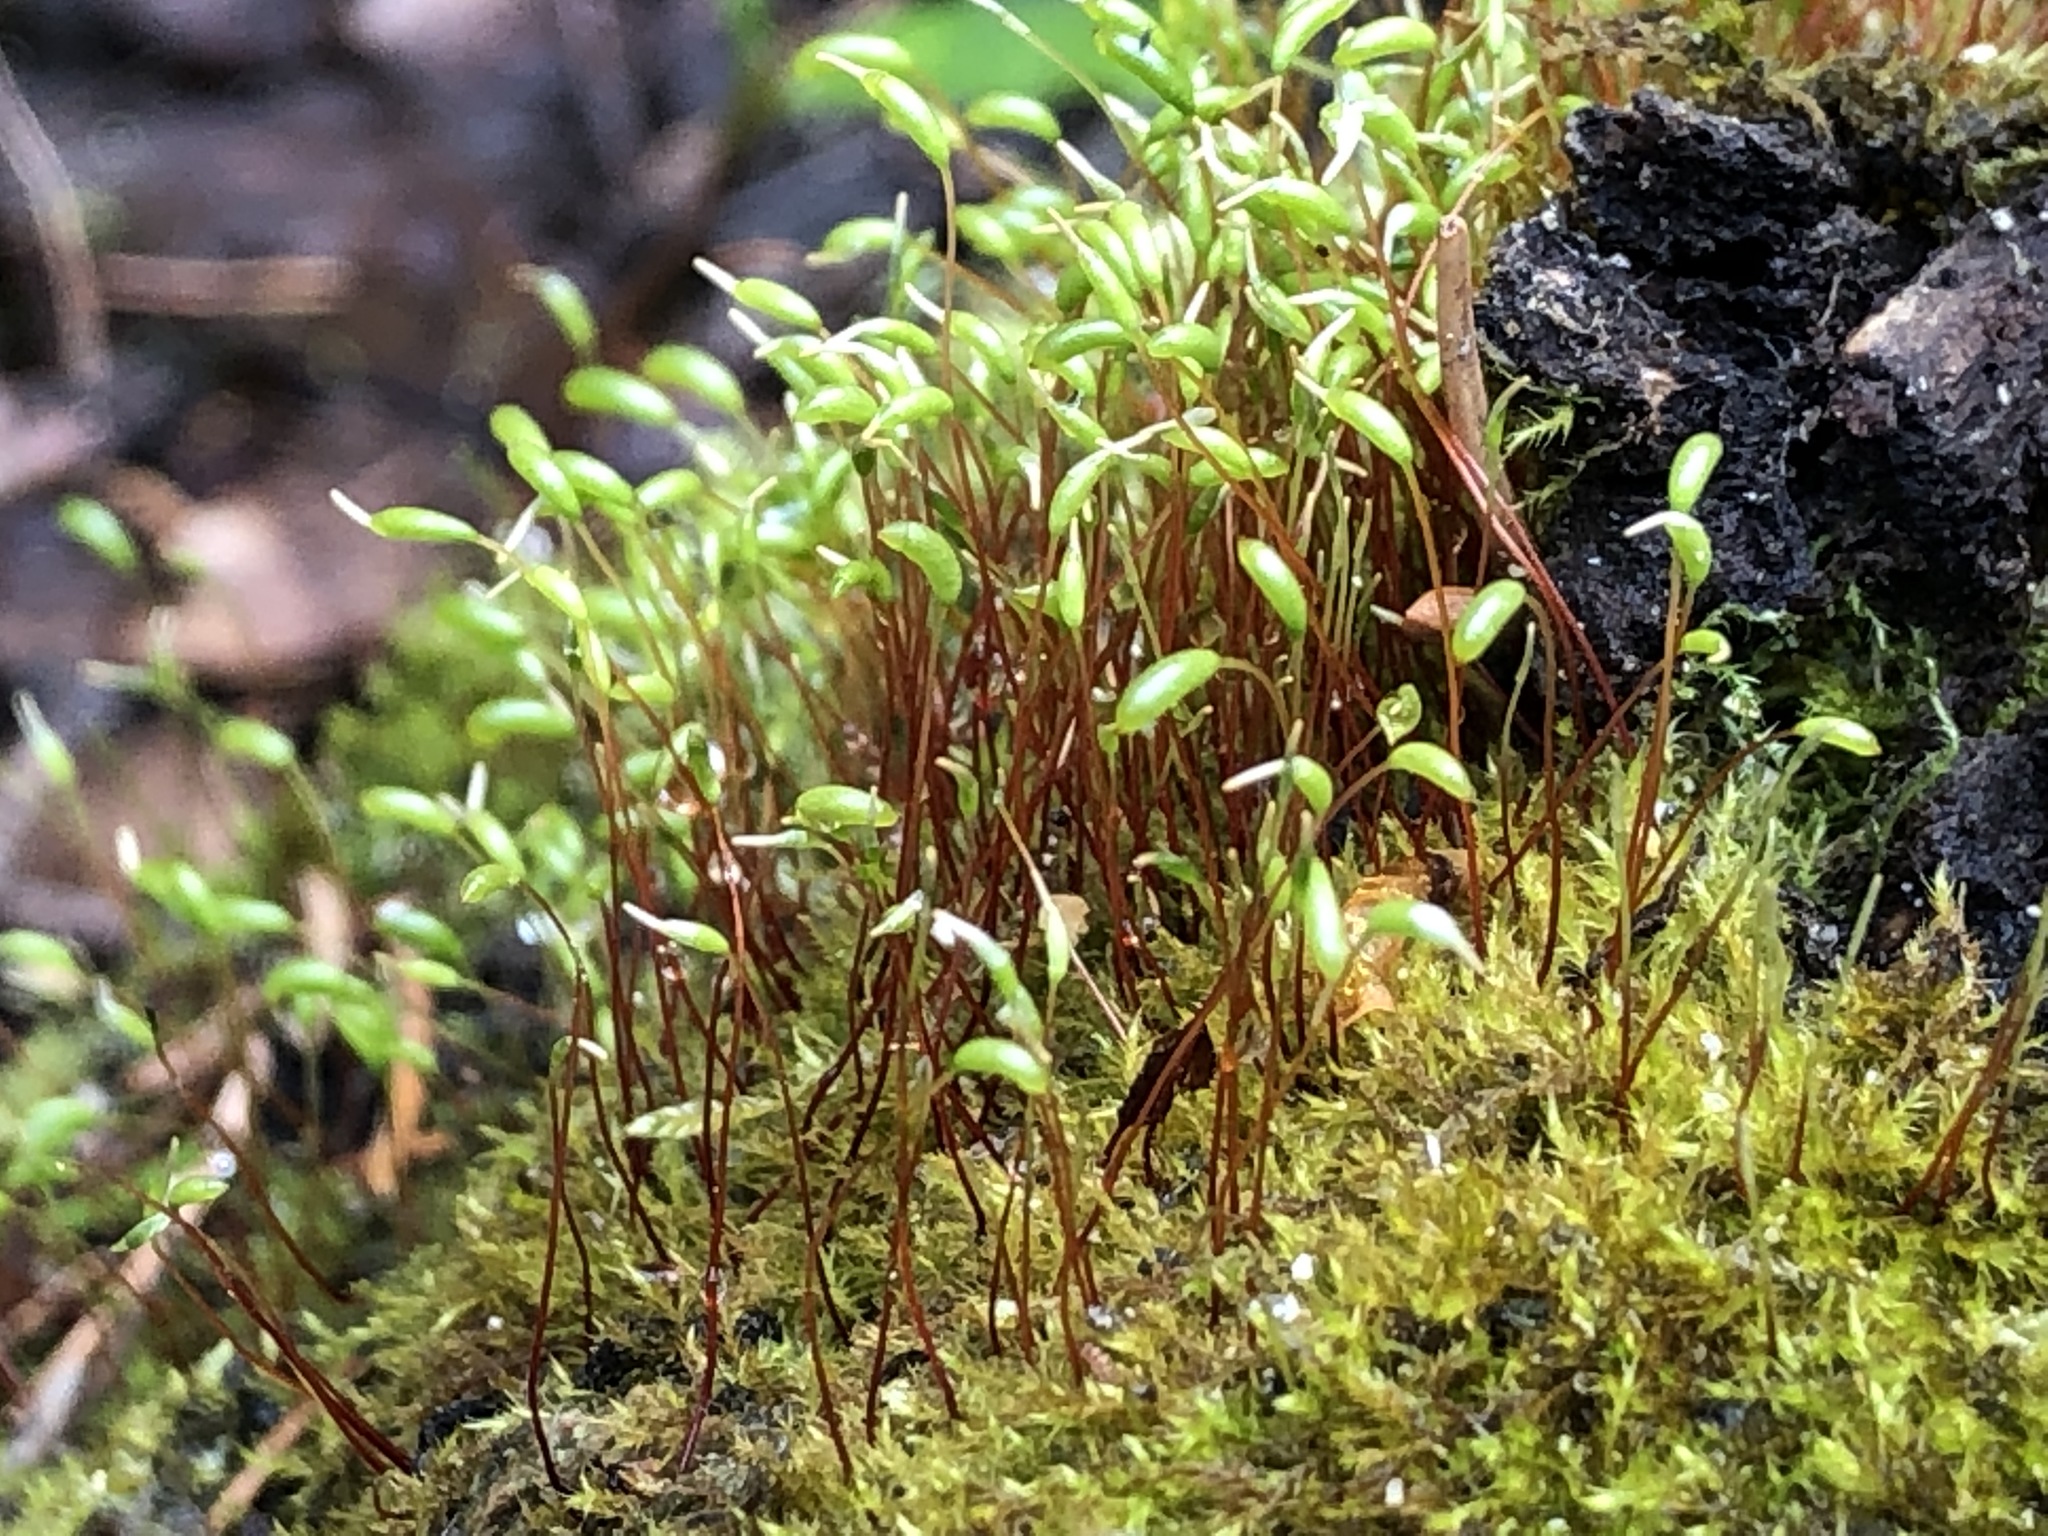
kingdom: Plantae
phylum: Bryophyta
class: Bryopsida
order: Hypnales
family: Amblystegiaceae
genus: Amblystegium
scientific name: Amblystegium serpens
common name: Jurkatzka's feather moss
